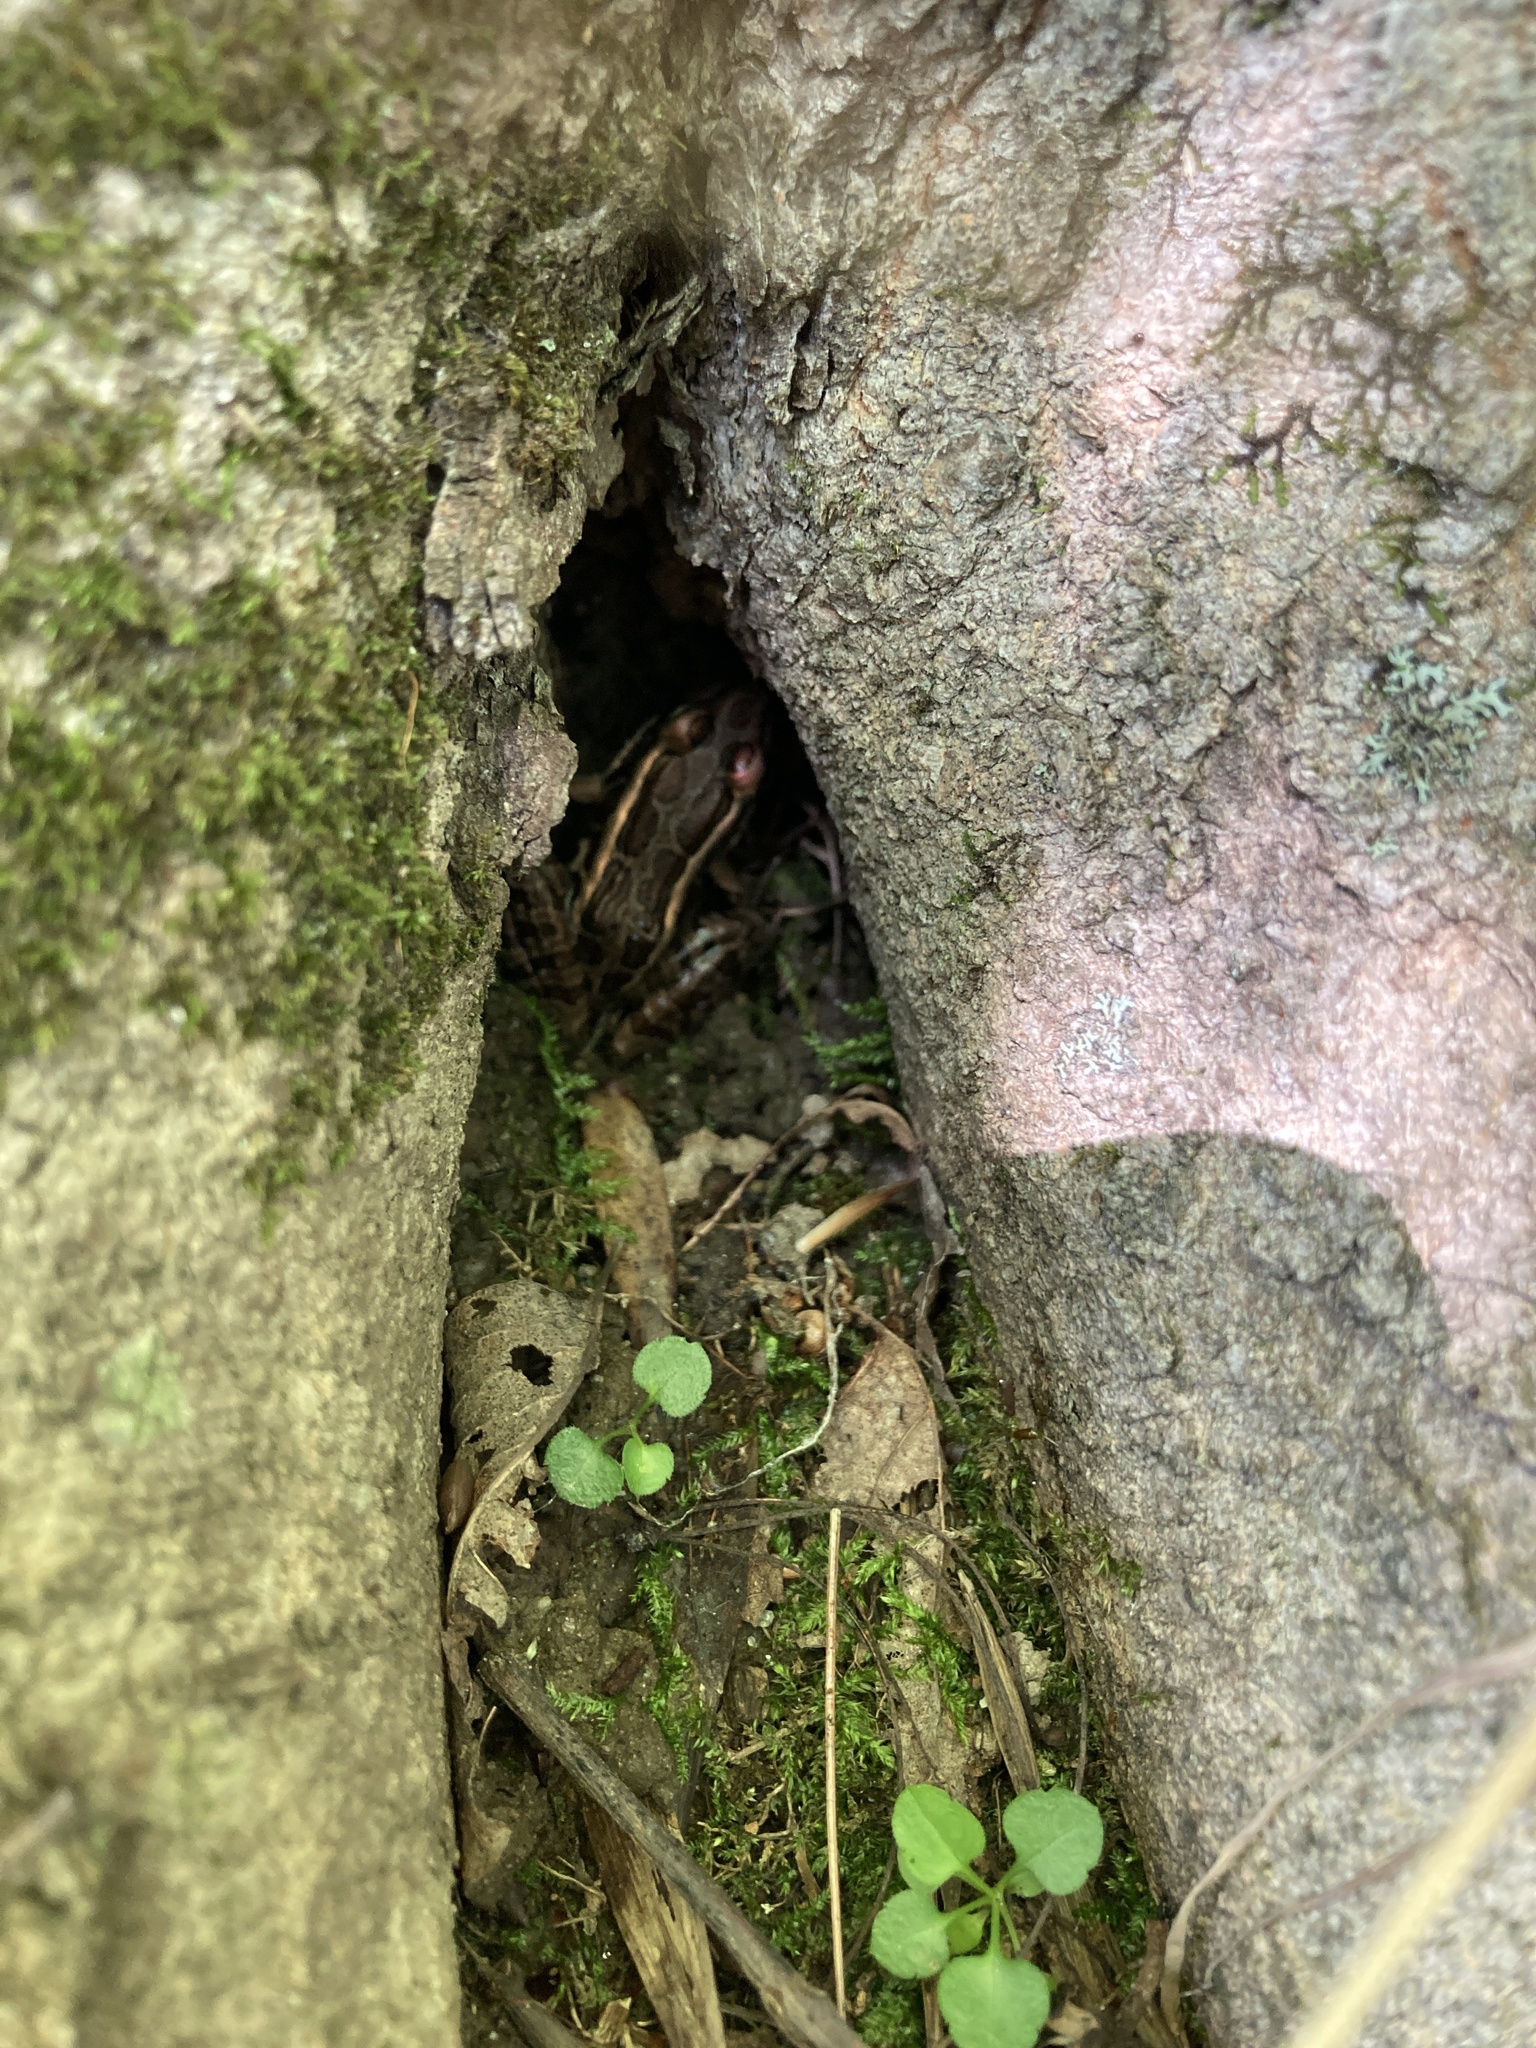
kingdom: Animalia
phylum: Chordata
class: Amphibia
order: Anura
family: Ranidae
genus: Lithobates
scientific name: Lithobates palustris
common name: Pickerel frog
